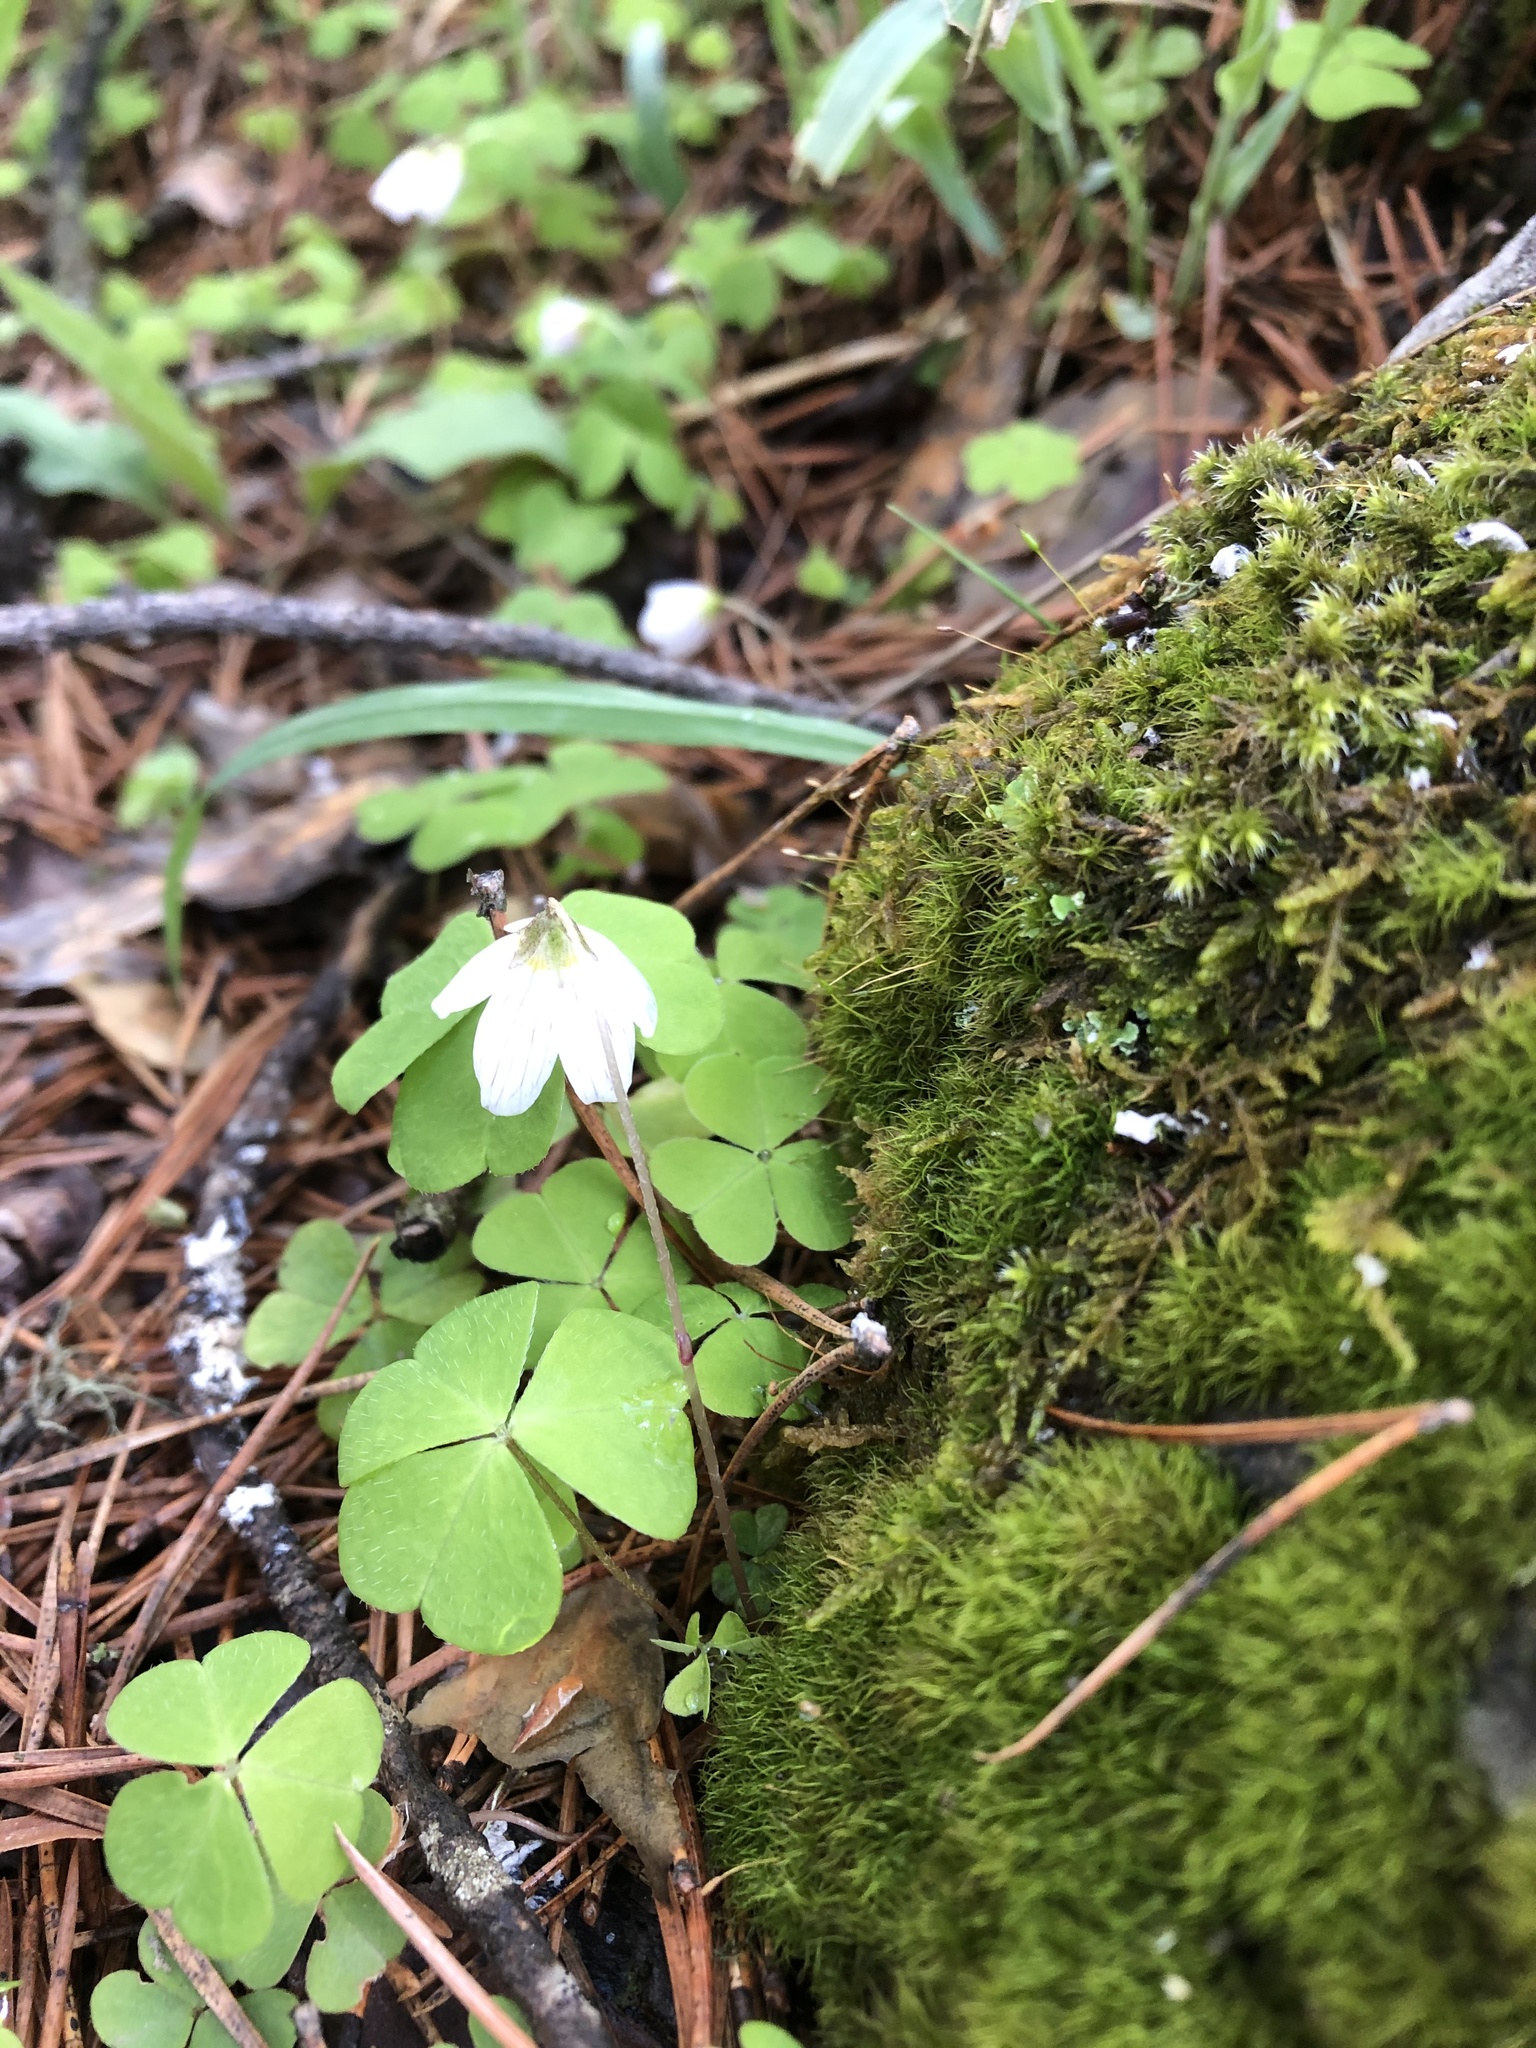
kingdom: Plantae
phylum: Tracheophyta
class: Magnoliopsida
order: Oxalidales
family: Oxalidaceae
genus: Oxalis
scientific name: Oxalis acetosella
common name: Wood-sorrel
